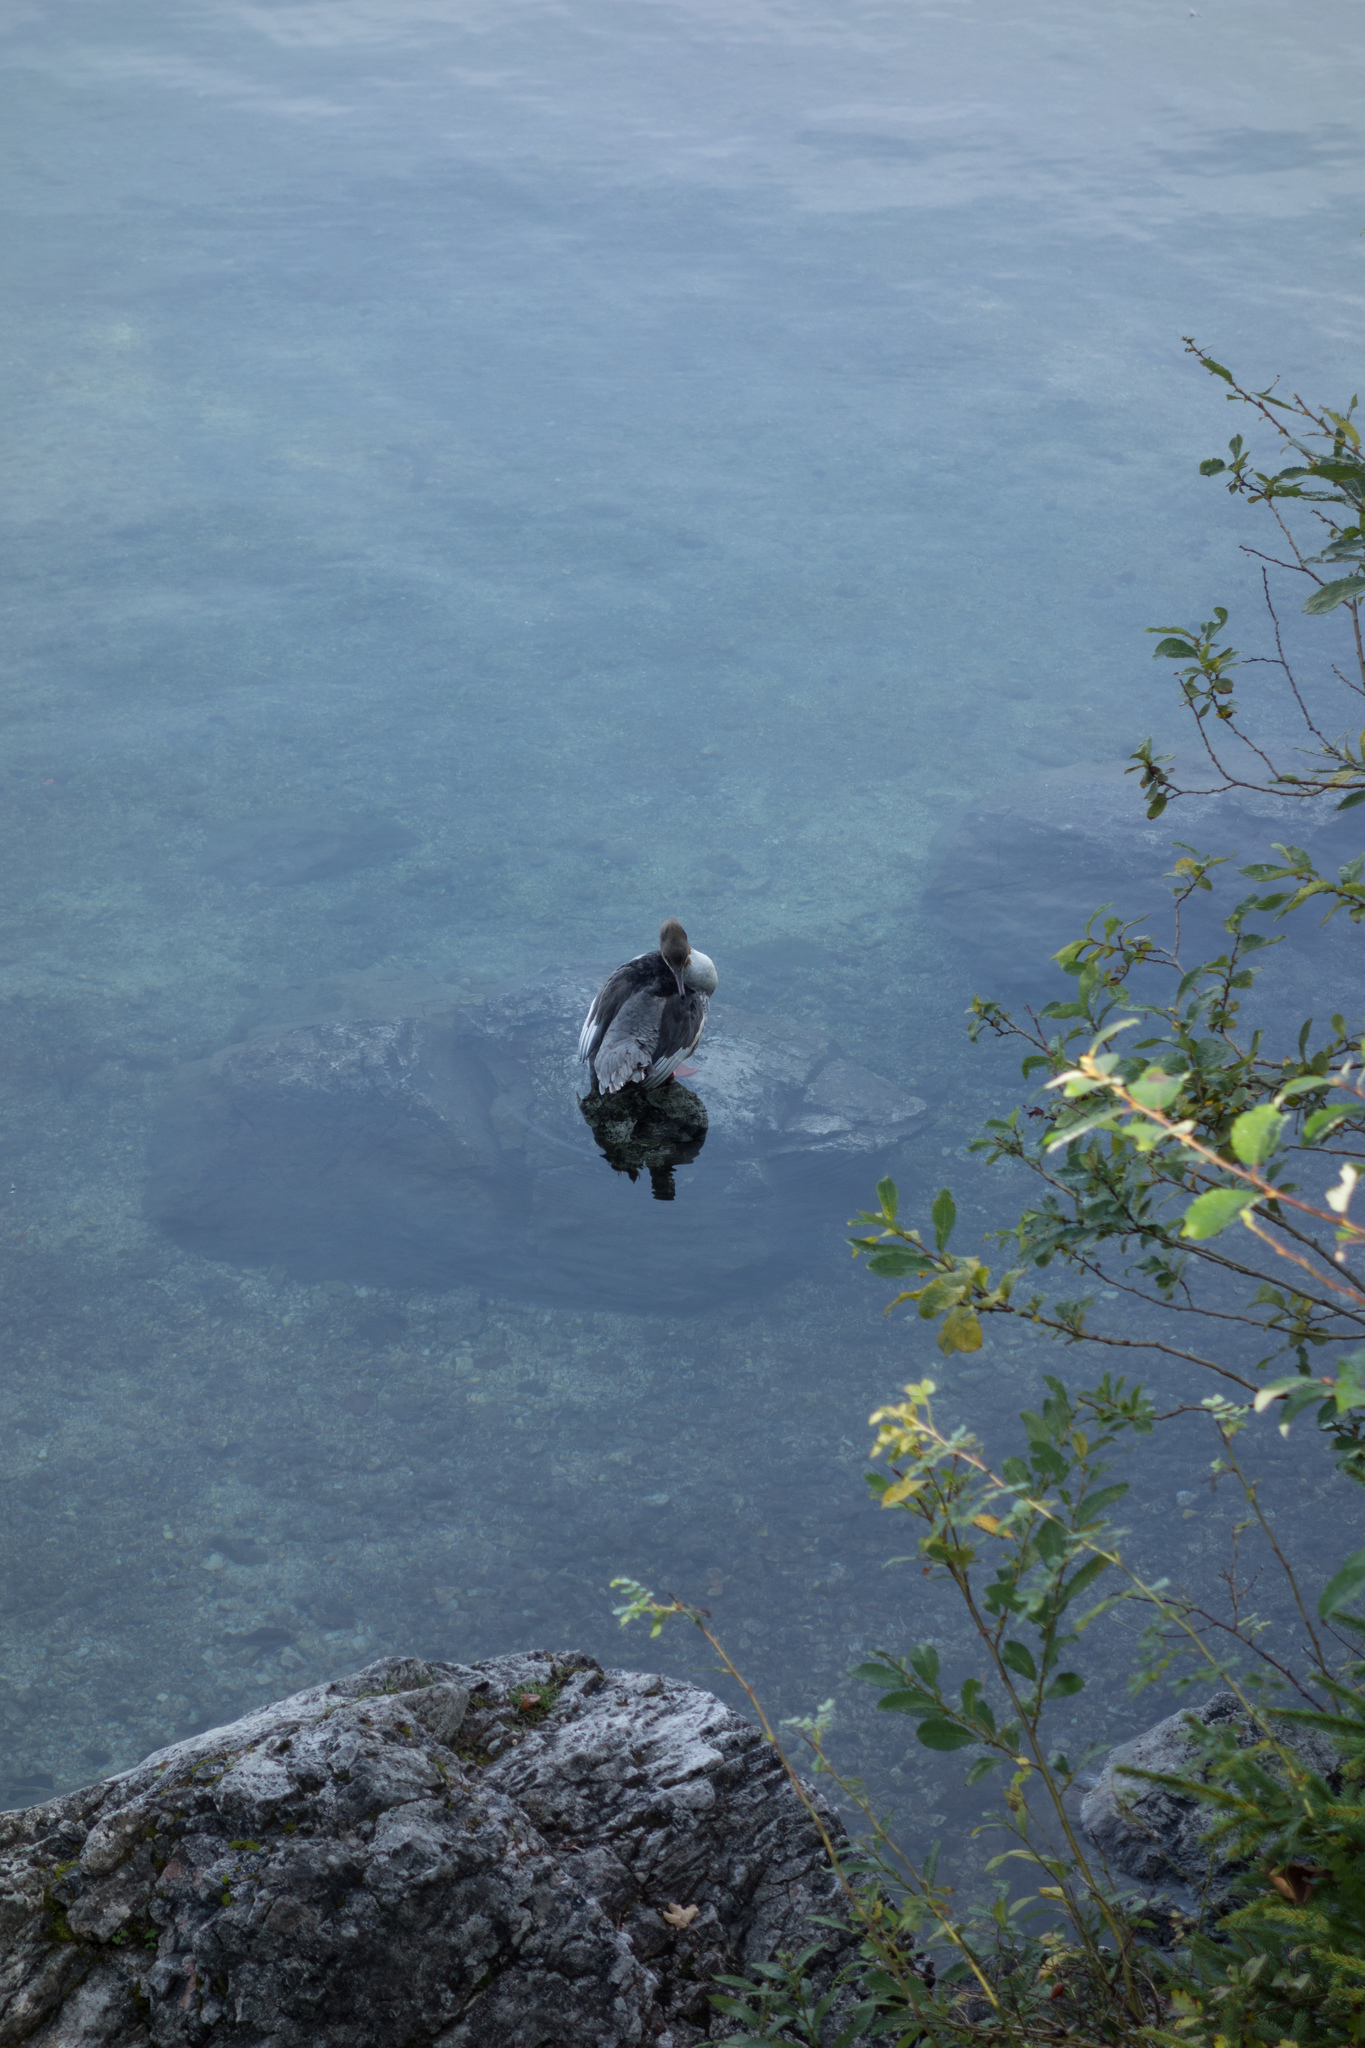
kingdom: Animalia
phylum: Chordata
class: Aves
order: Anseriformes
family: Anatidae
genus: Mergus
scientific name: Mergus merganser
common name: Common merganser
